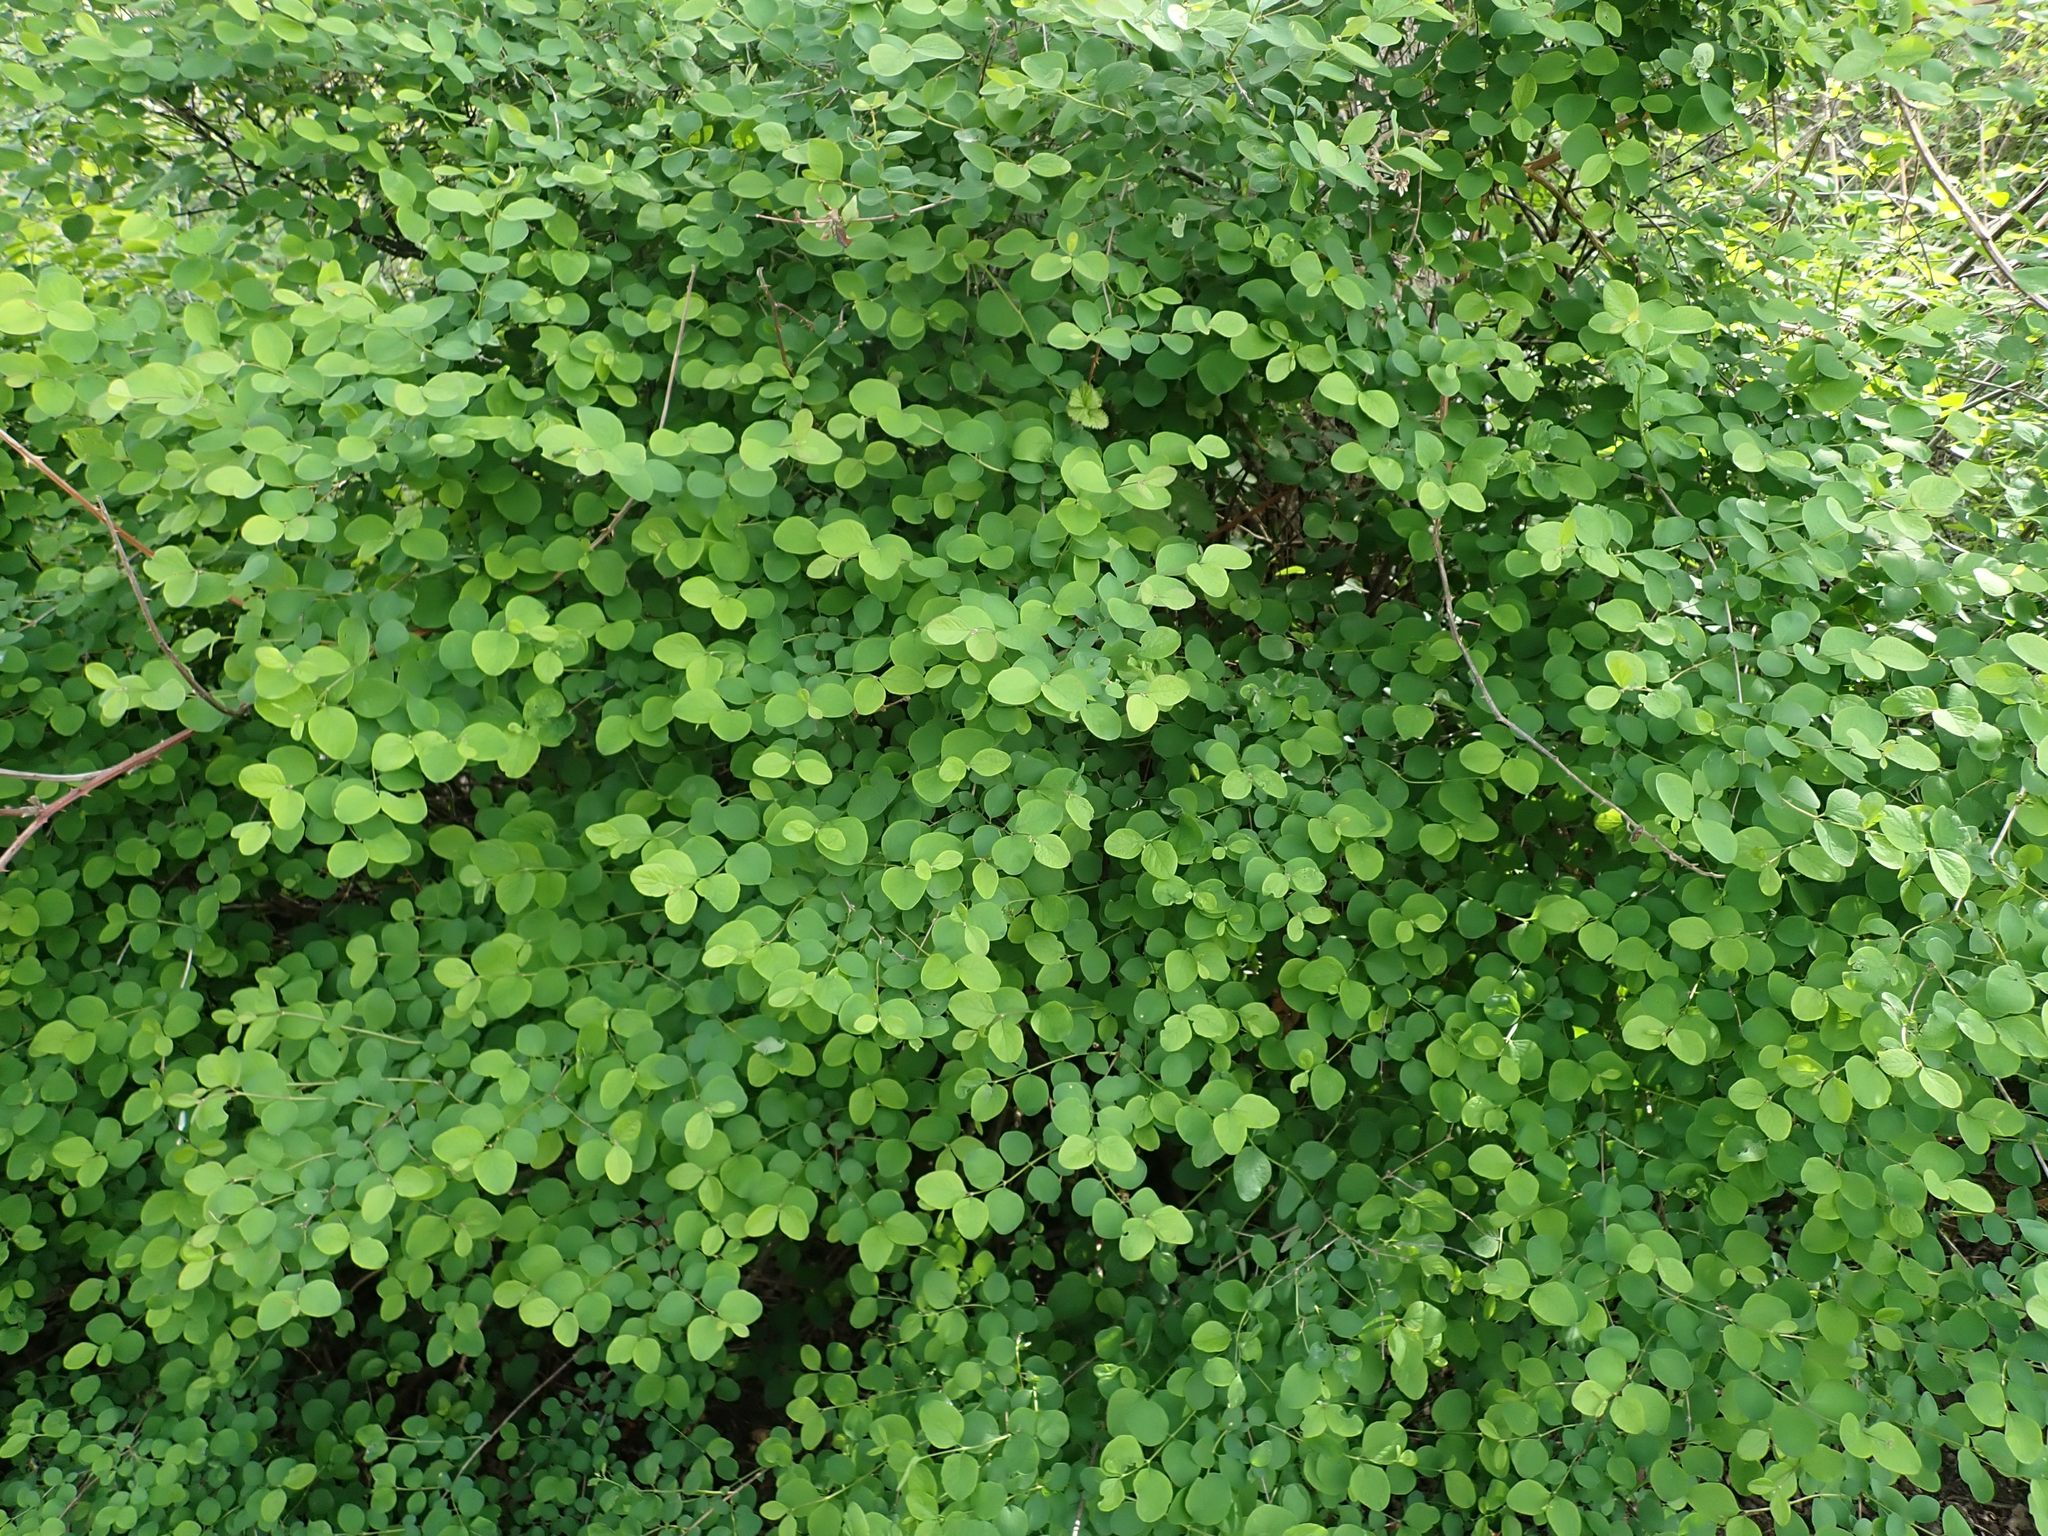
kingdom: Plantae
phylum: Tracheophyta
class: Magnoliopsida
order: Dipsacales
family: Caprifoliaceae
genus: Symphoricarpos
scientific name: Symphoricarpos albus
